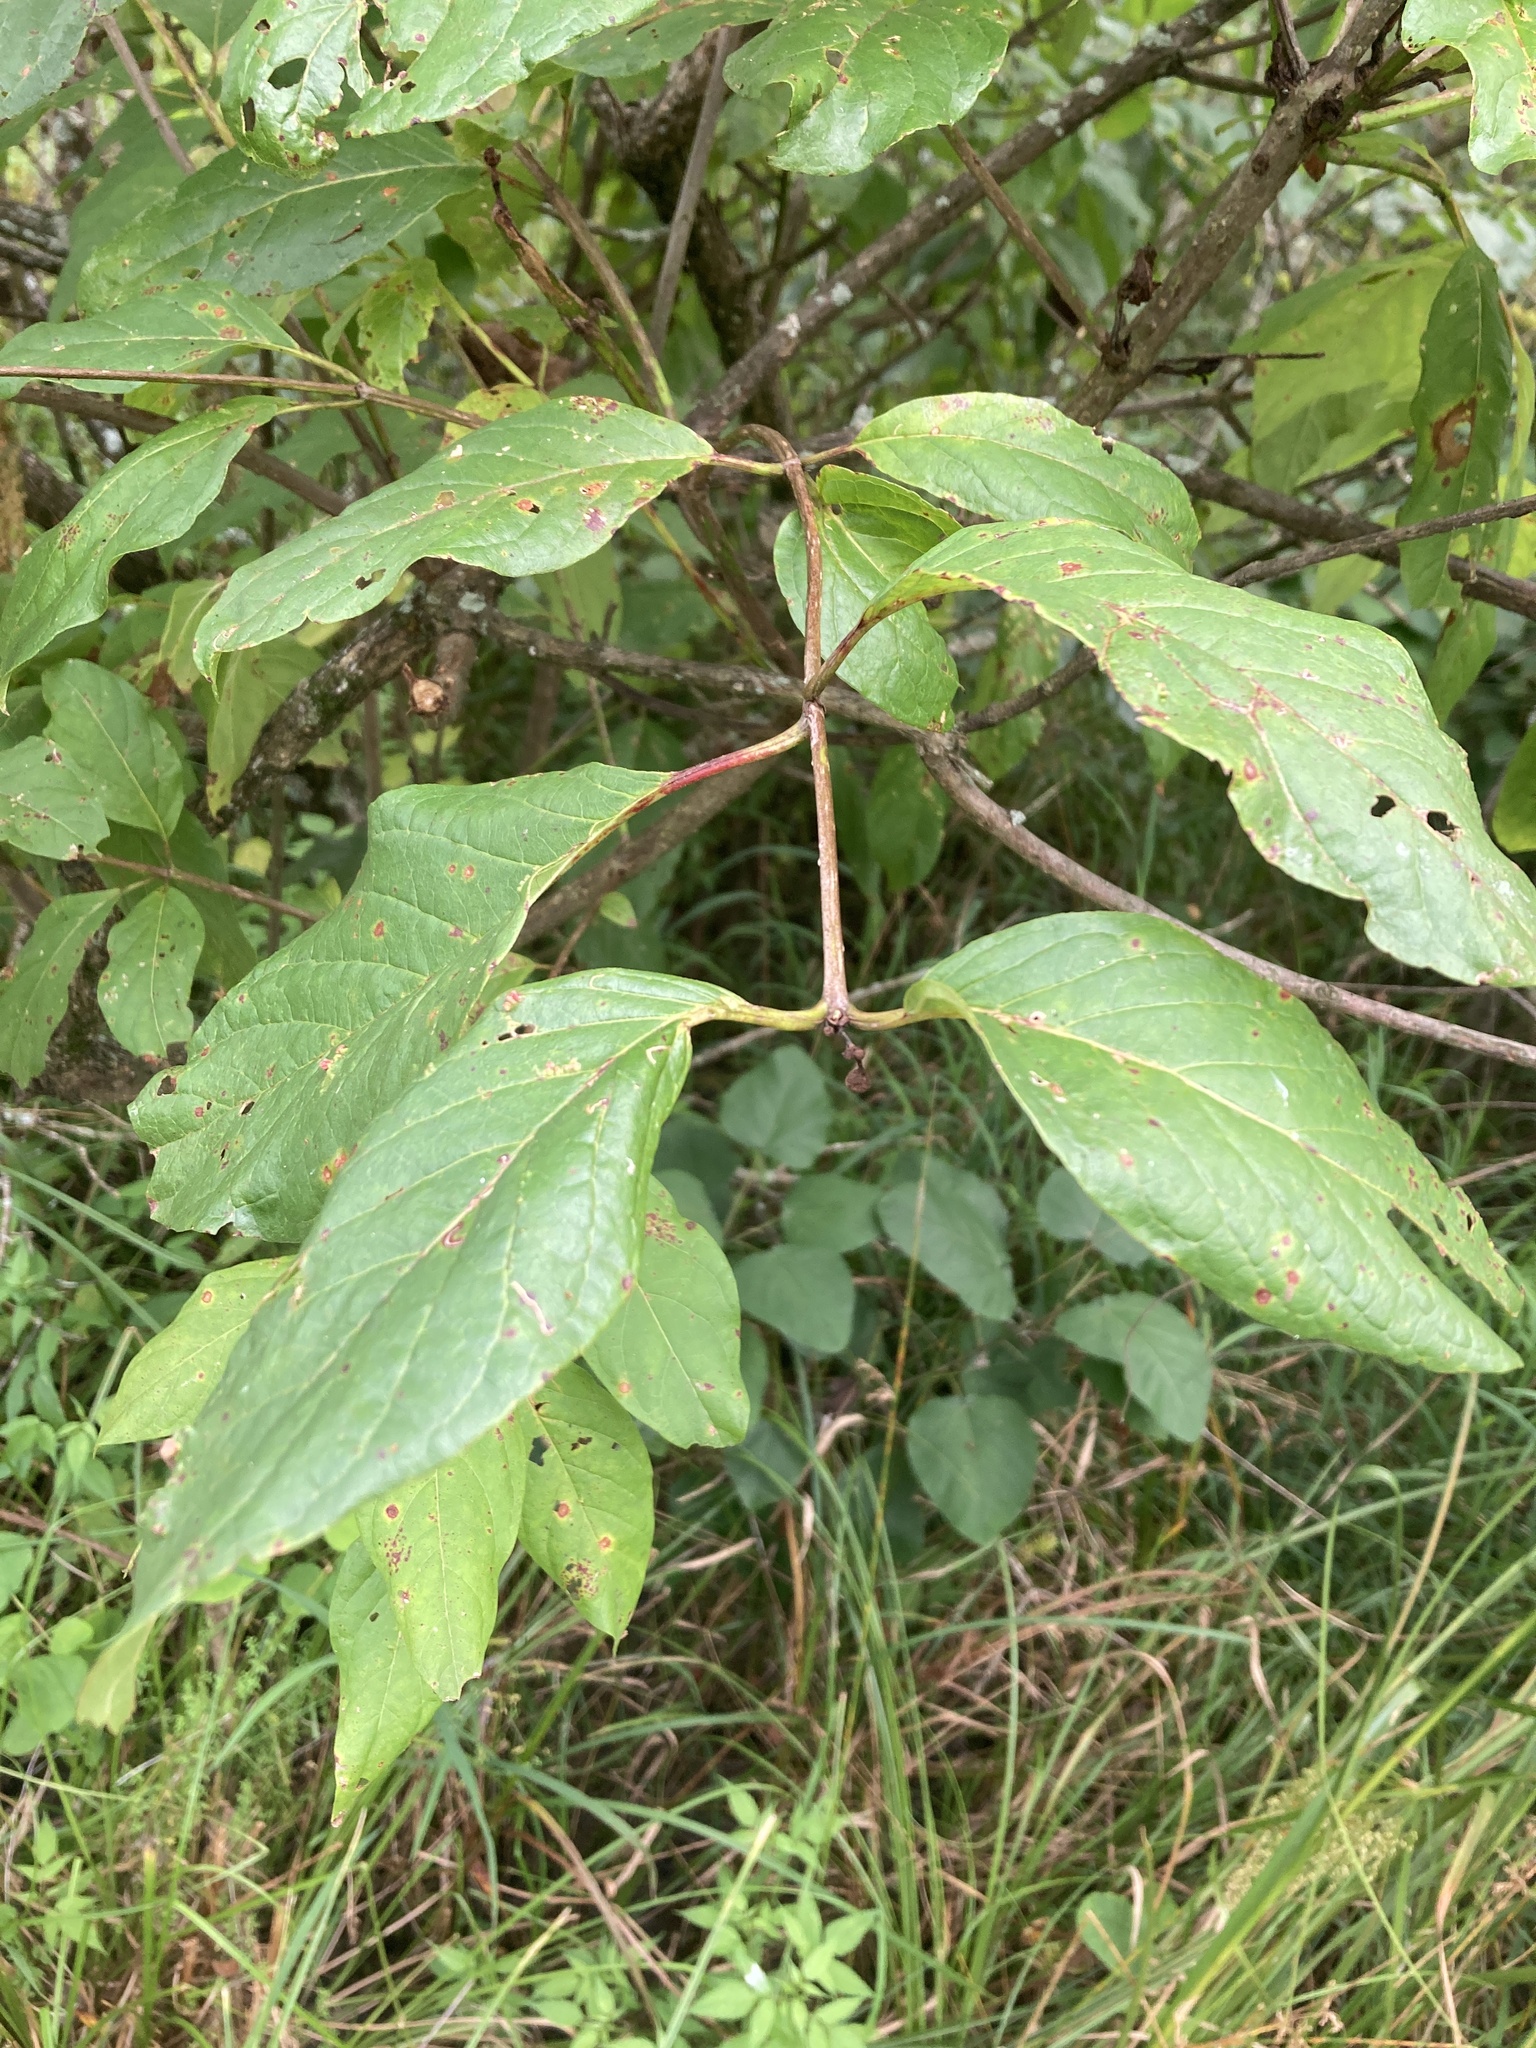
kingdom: Plantae
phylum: Tracheophyta
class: Magnoliopsida
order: Gentianales
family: Rubiaceae
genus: Cephalanthus
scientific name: Cephalanthus occidentalis
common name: Button-willow
